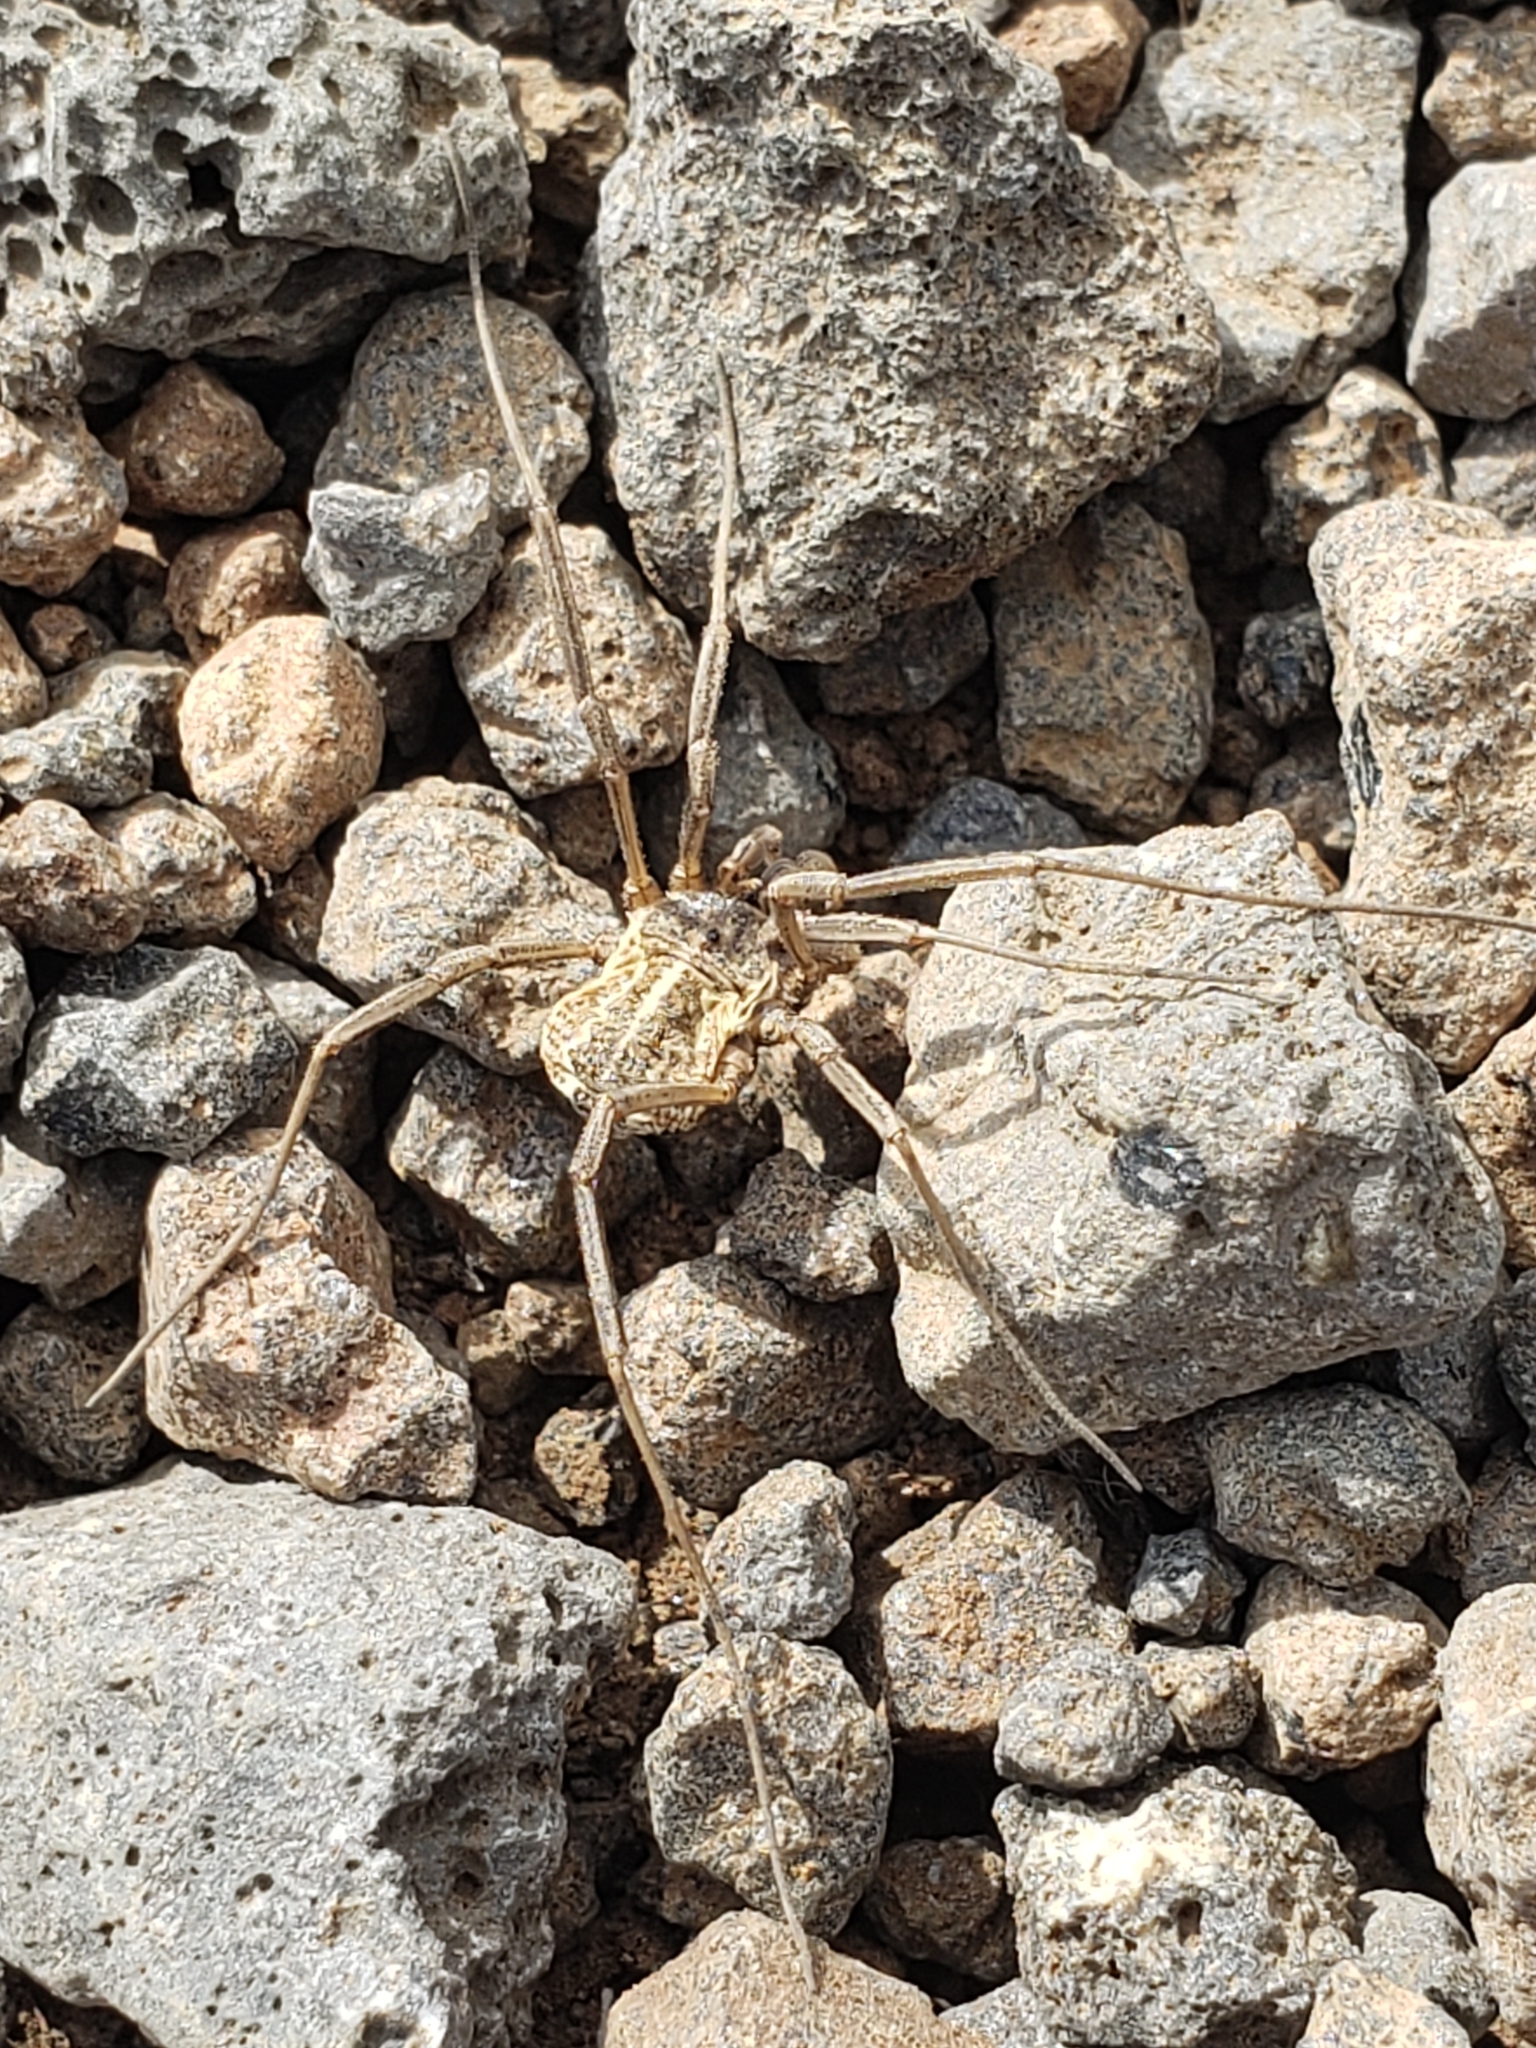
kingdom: Animalia
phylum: Arthropoda
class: Arachnida
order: Opiliones
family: Phalangiidae
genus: Mitopus
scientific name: Mitopus morio
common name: Saddleback harvestman
